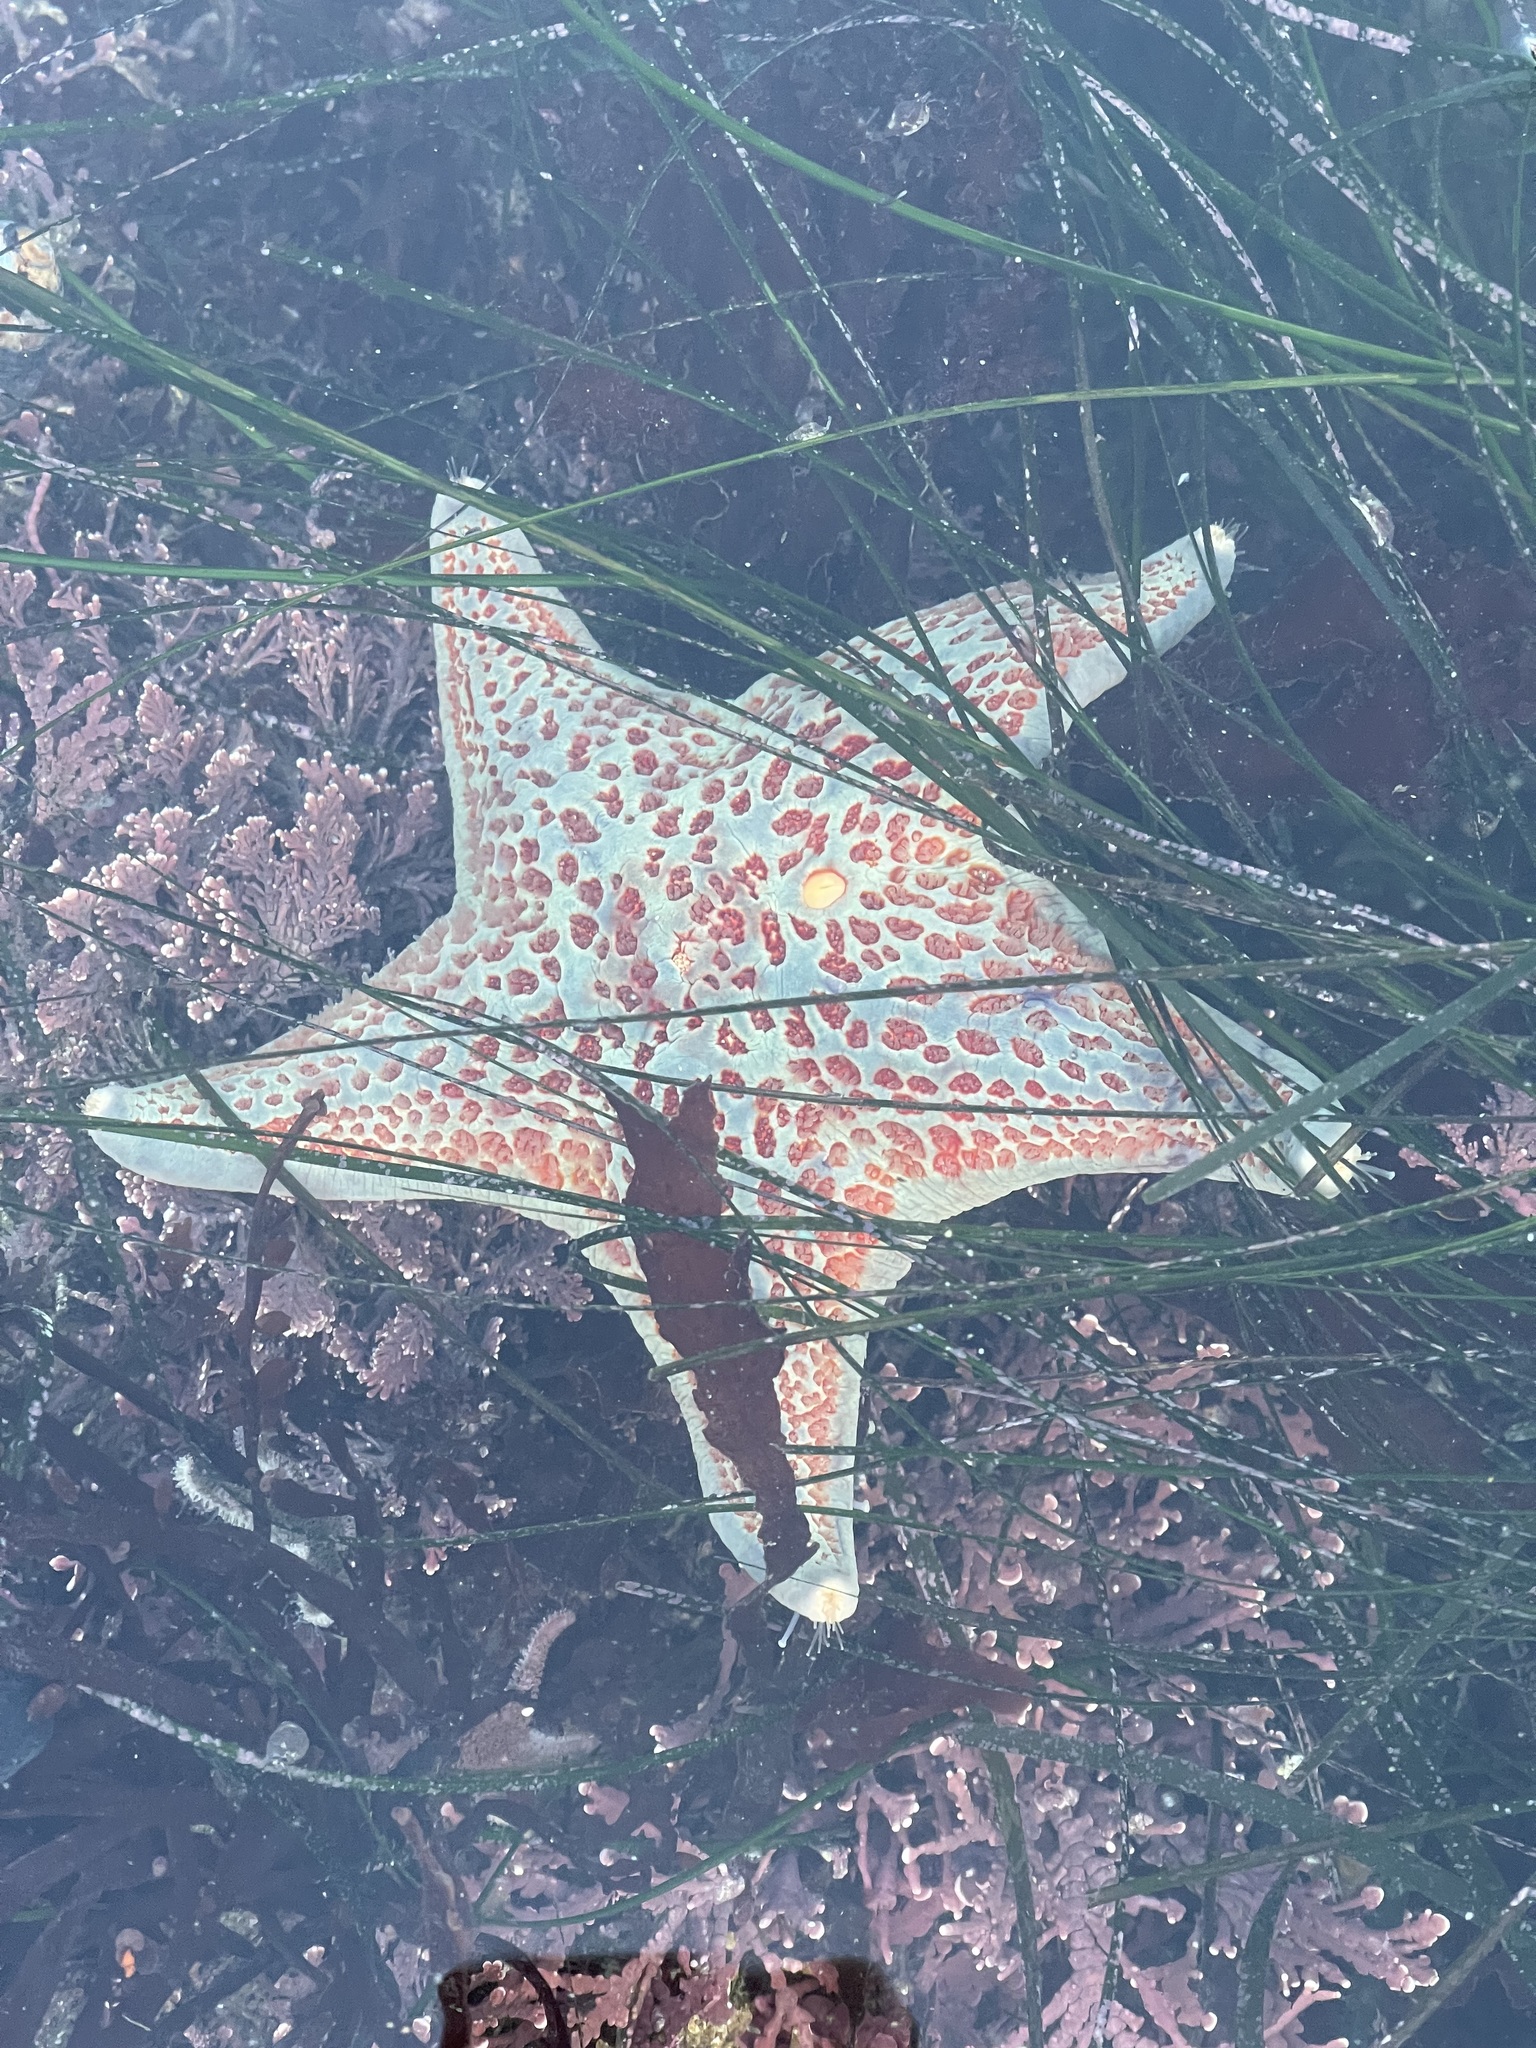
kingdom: Animalia
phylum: Echinodermata
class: Asteroidea
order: Valvatida
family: Asteropseidae
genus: Dermasterias
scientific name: Dermasterias imbricata
